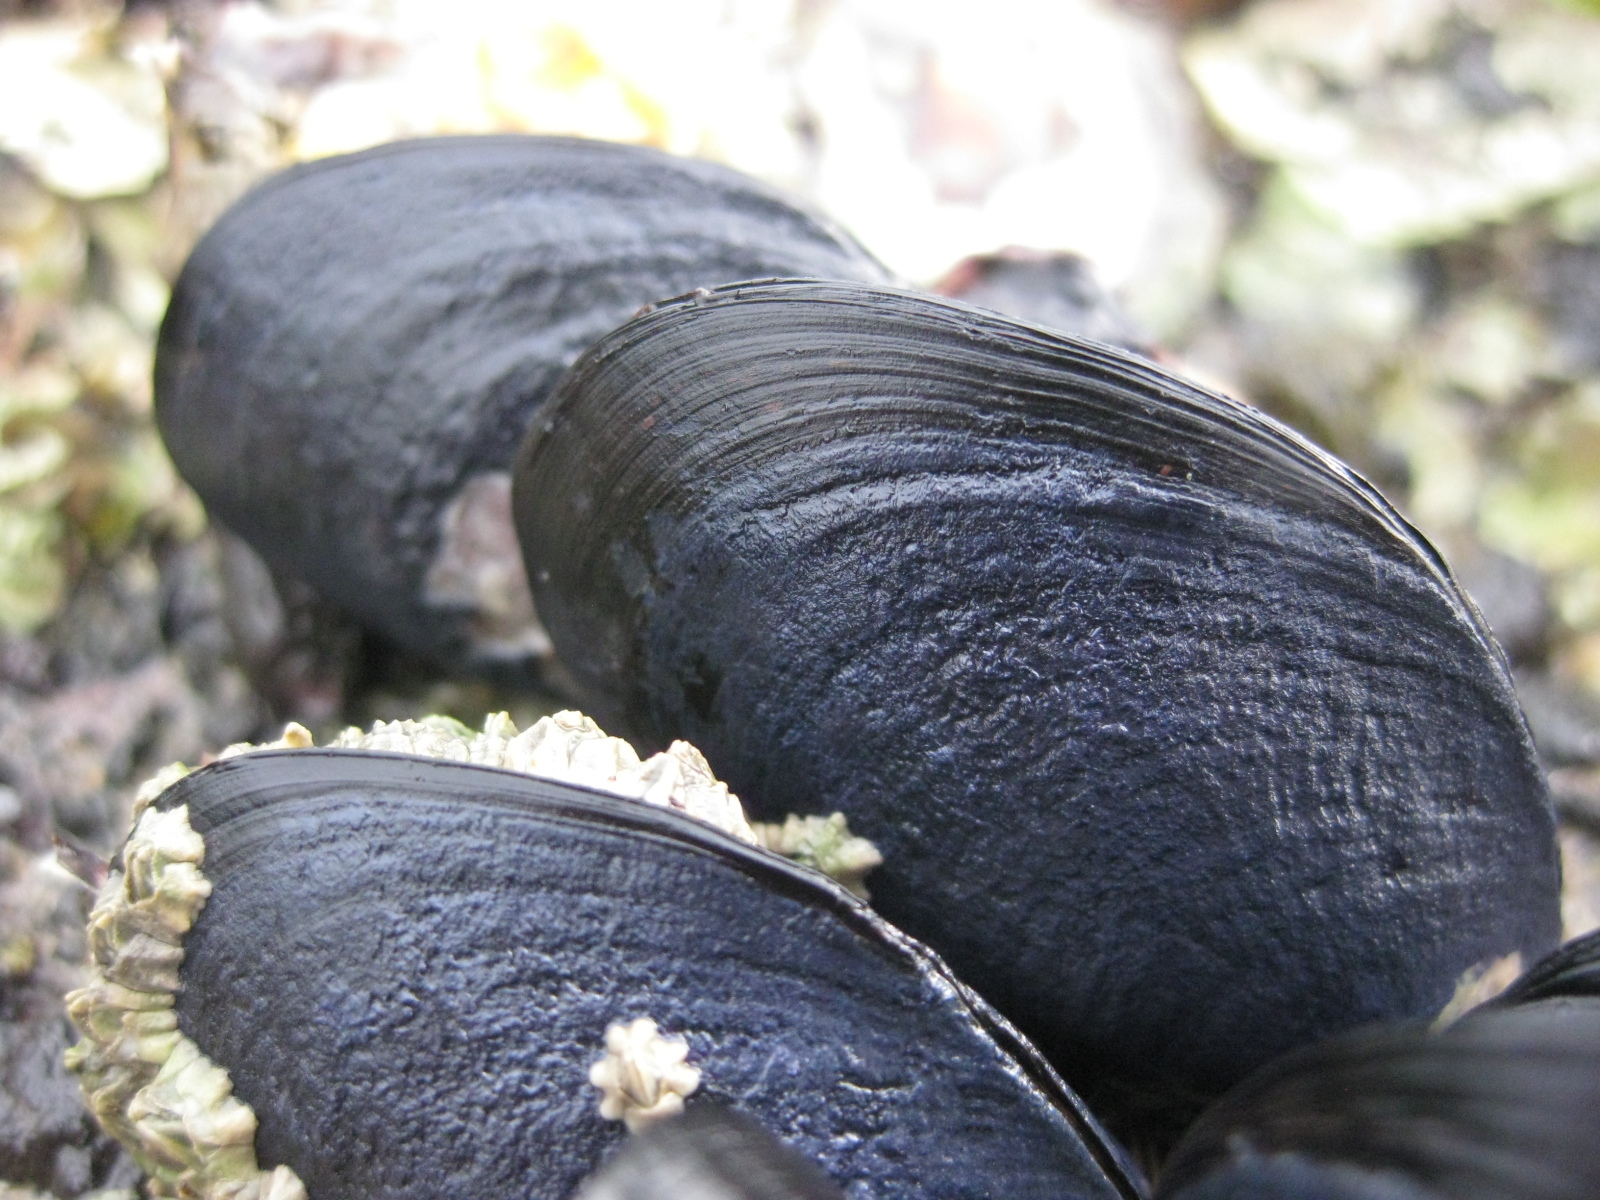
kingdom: Animalia
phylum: Mollusca
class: Bivalvia
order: Mytilida
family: Mytilidae
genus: Mytilus
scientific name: Mytilus planulatus
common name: Australian mussel
